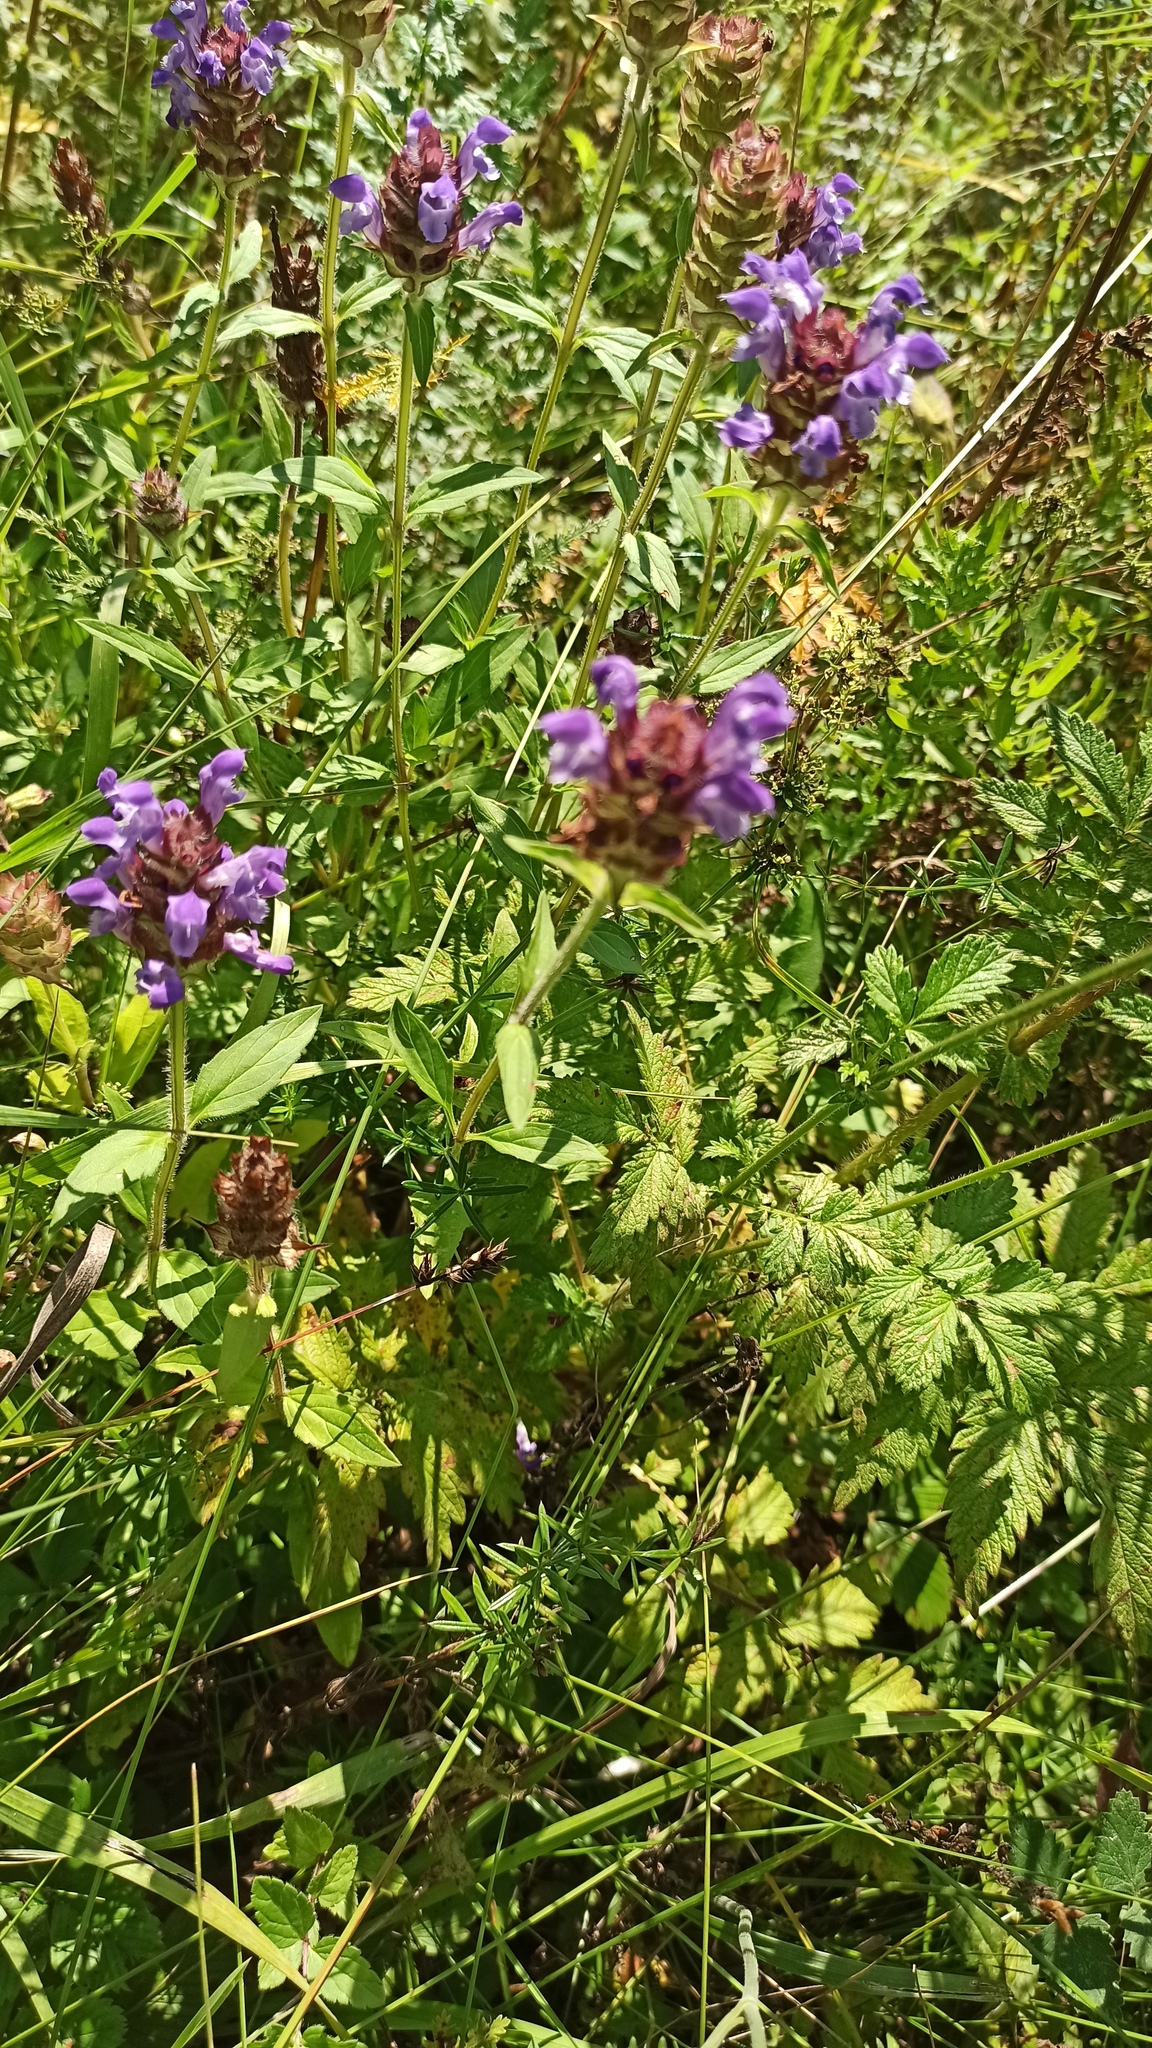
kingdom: Plantae
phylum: Tracheophyta
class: Magnoliopsida
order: Lamiales
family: Lamiaceae
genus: Prunella
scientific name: Prunella grandiflora
